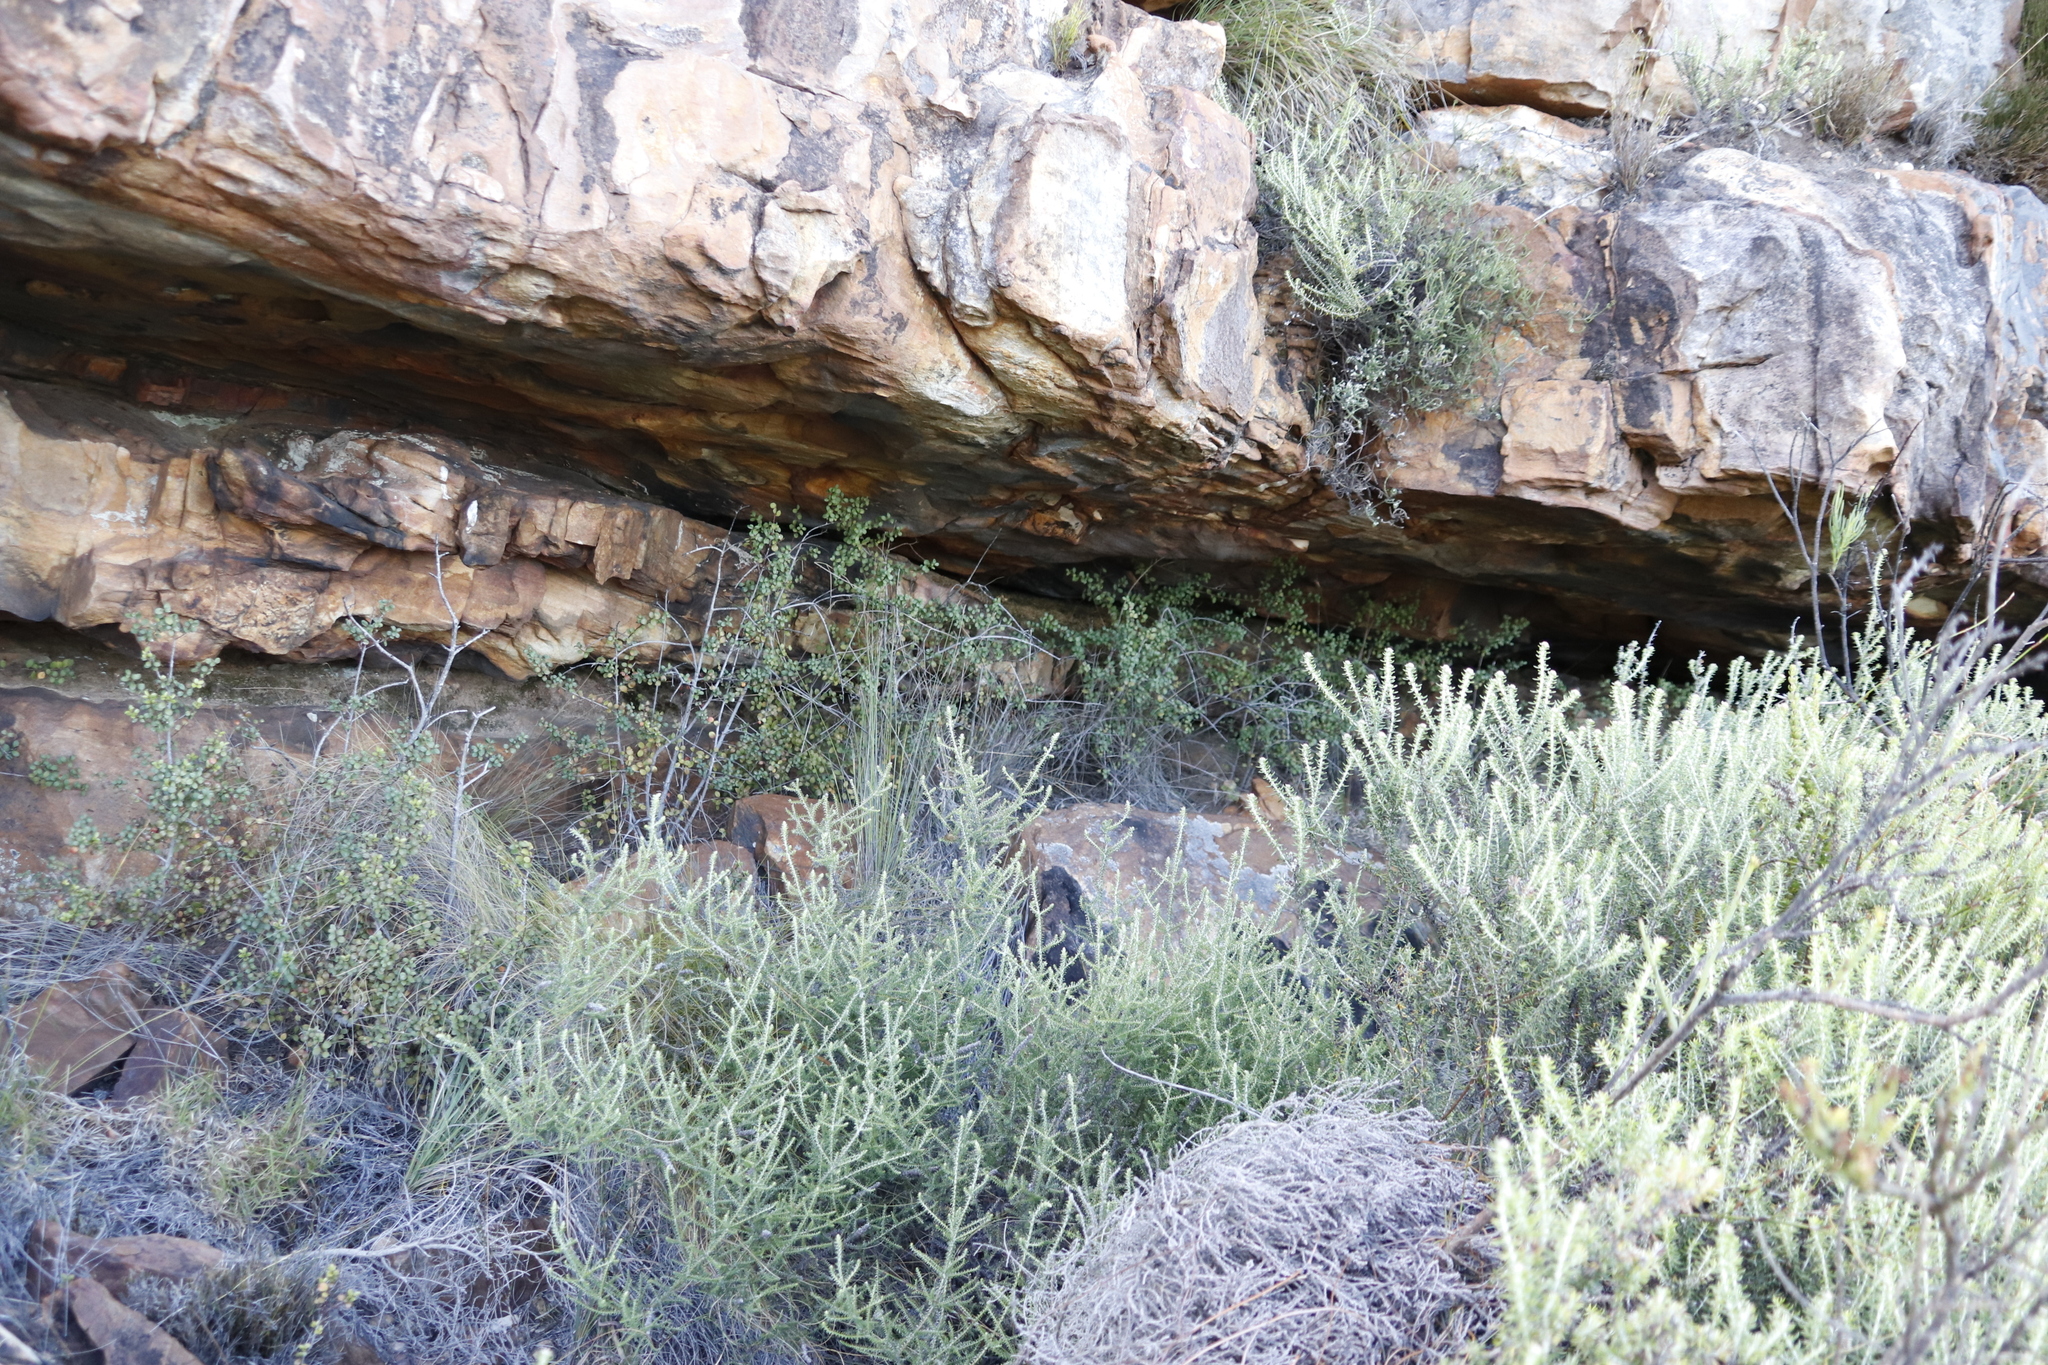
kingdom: Plantae
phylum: Tracheophyta
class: Magnoliopsida
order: Asterales
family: Asteraceae
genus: Seriphium
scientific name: Seriphium cinereum
